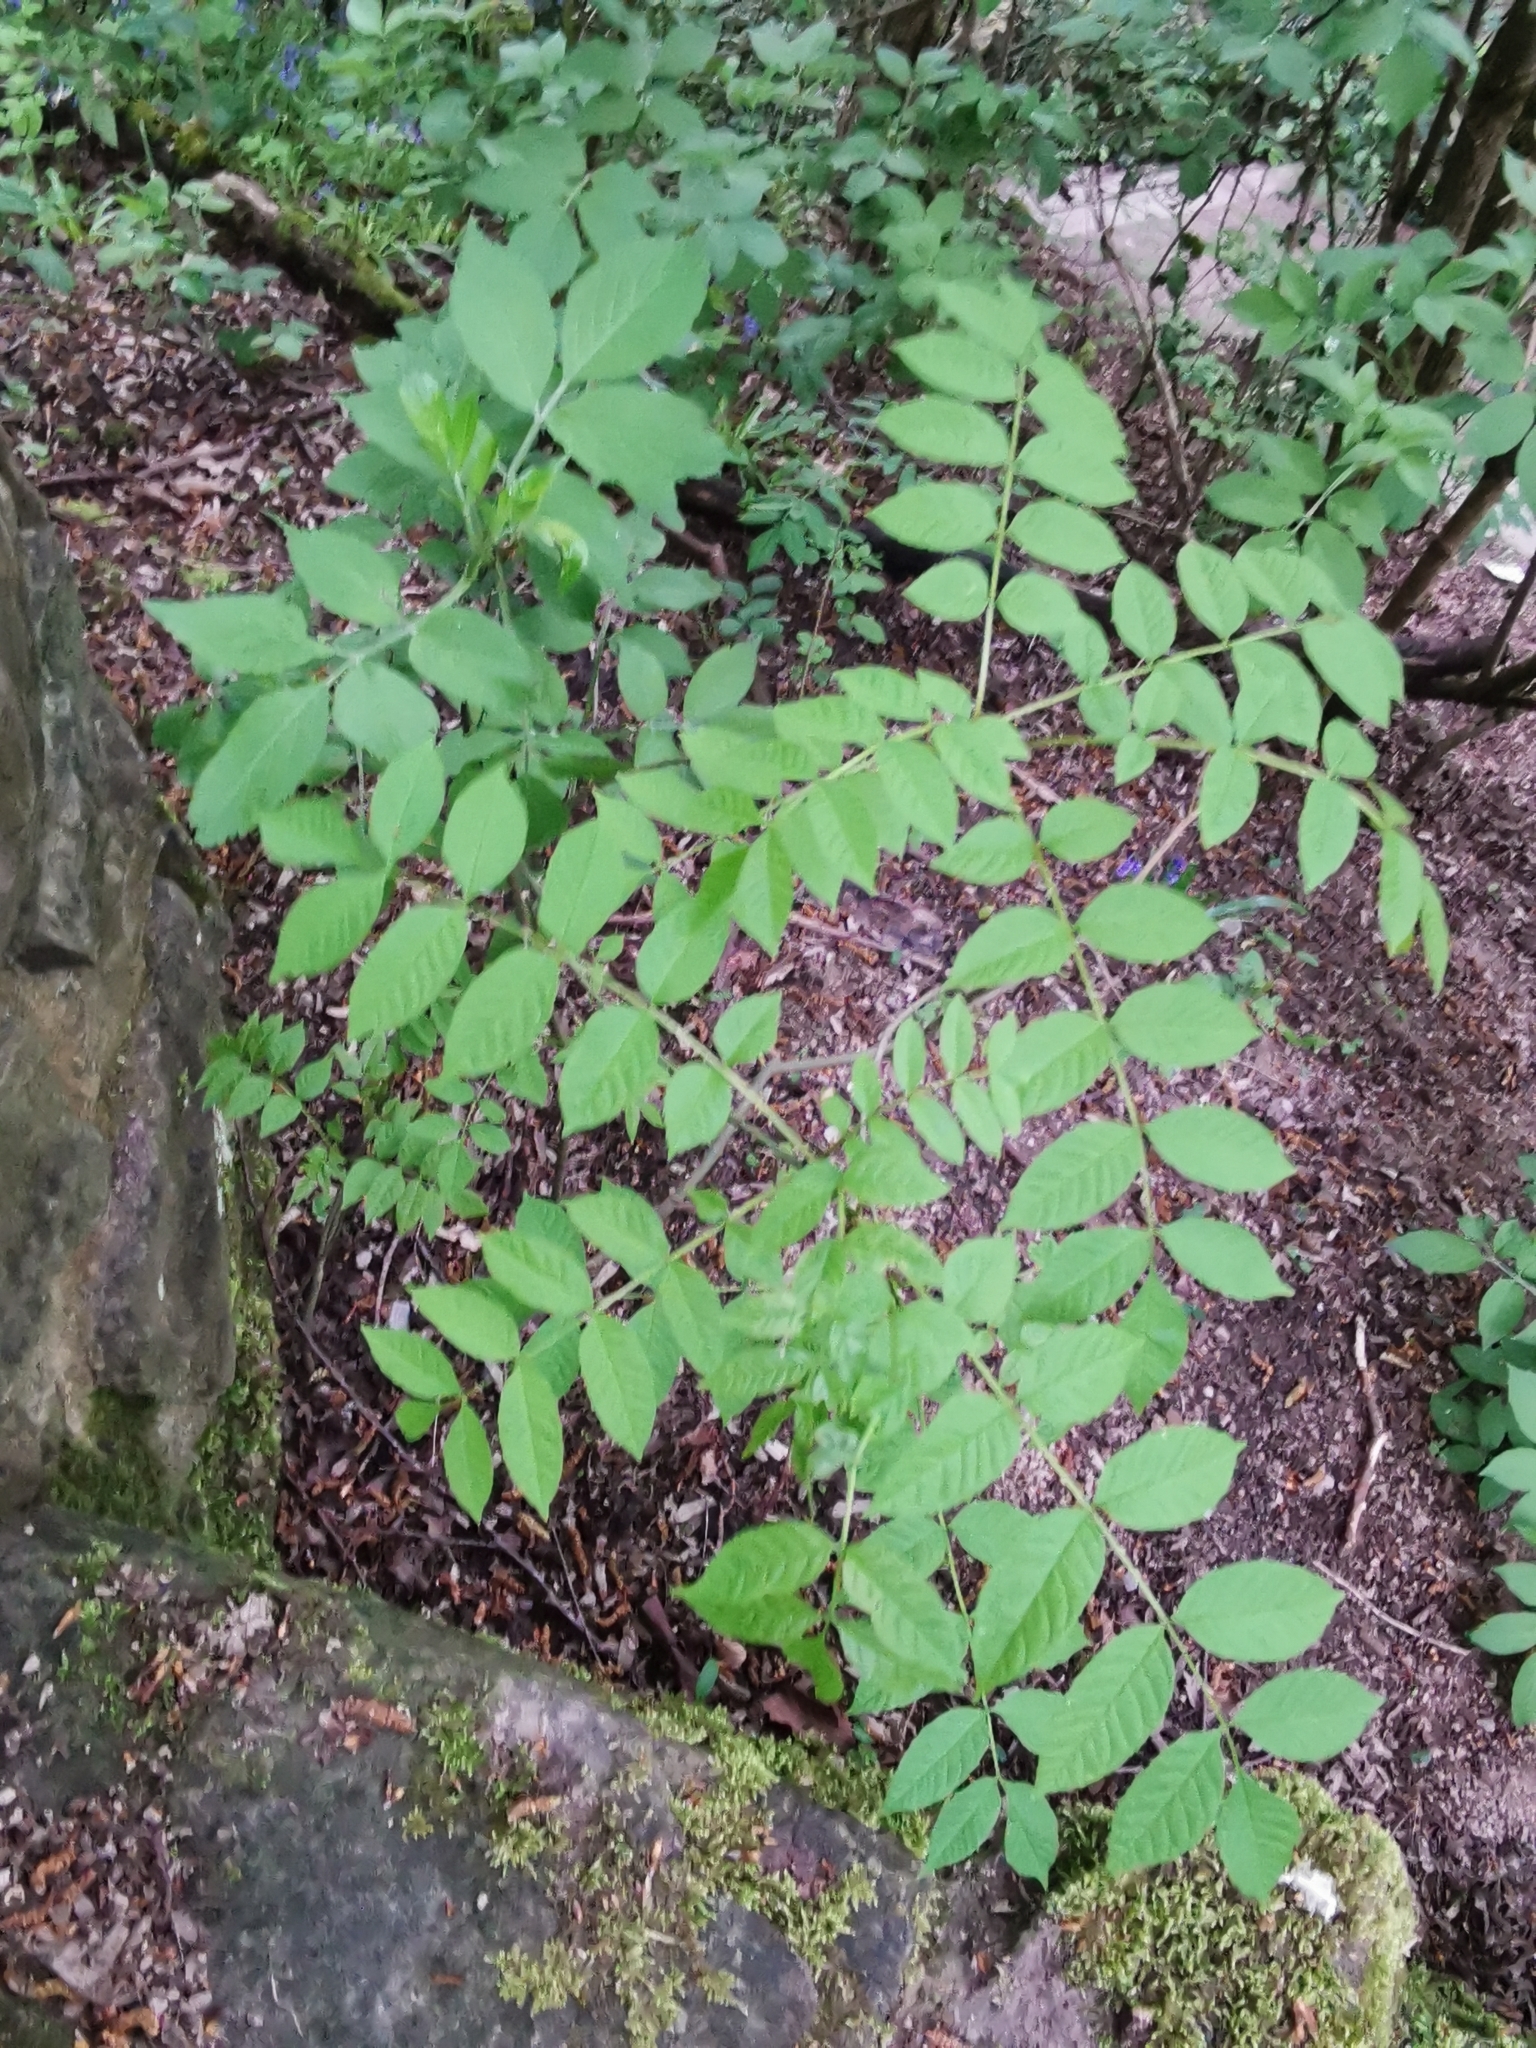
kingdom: Plantae
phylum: Tracheophyta
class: Magnoliopsida
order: Lamiales
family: Oleaceae
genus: Fraxinus
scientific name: Fraxinus excelsior
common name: European ash
